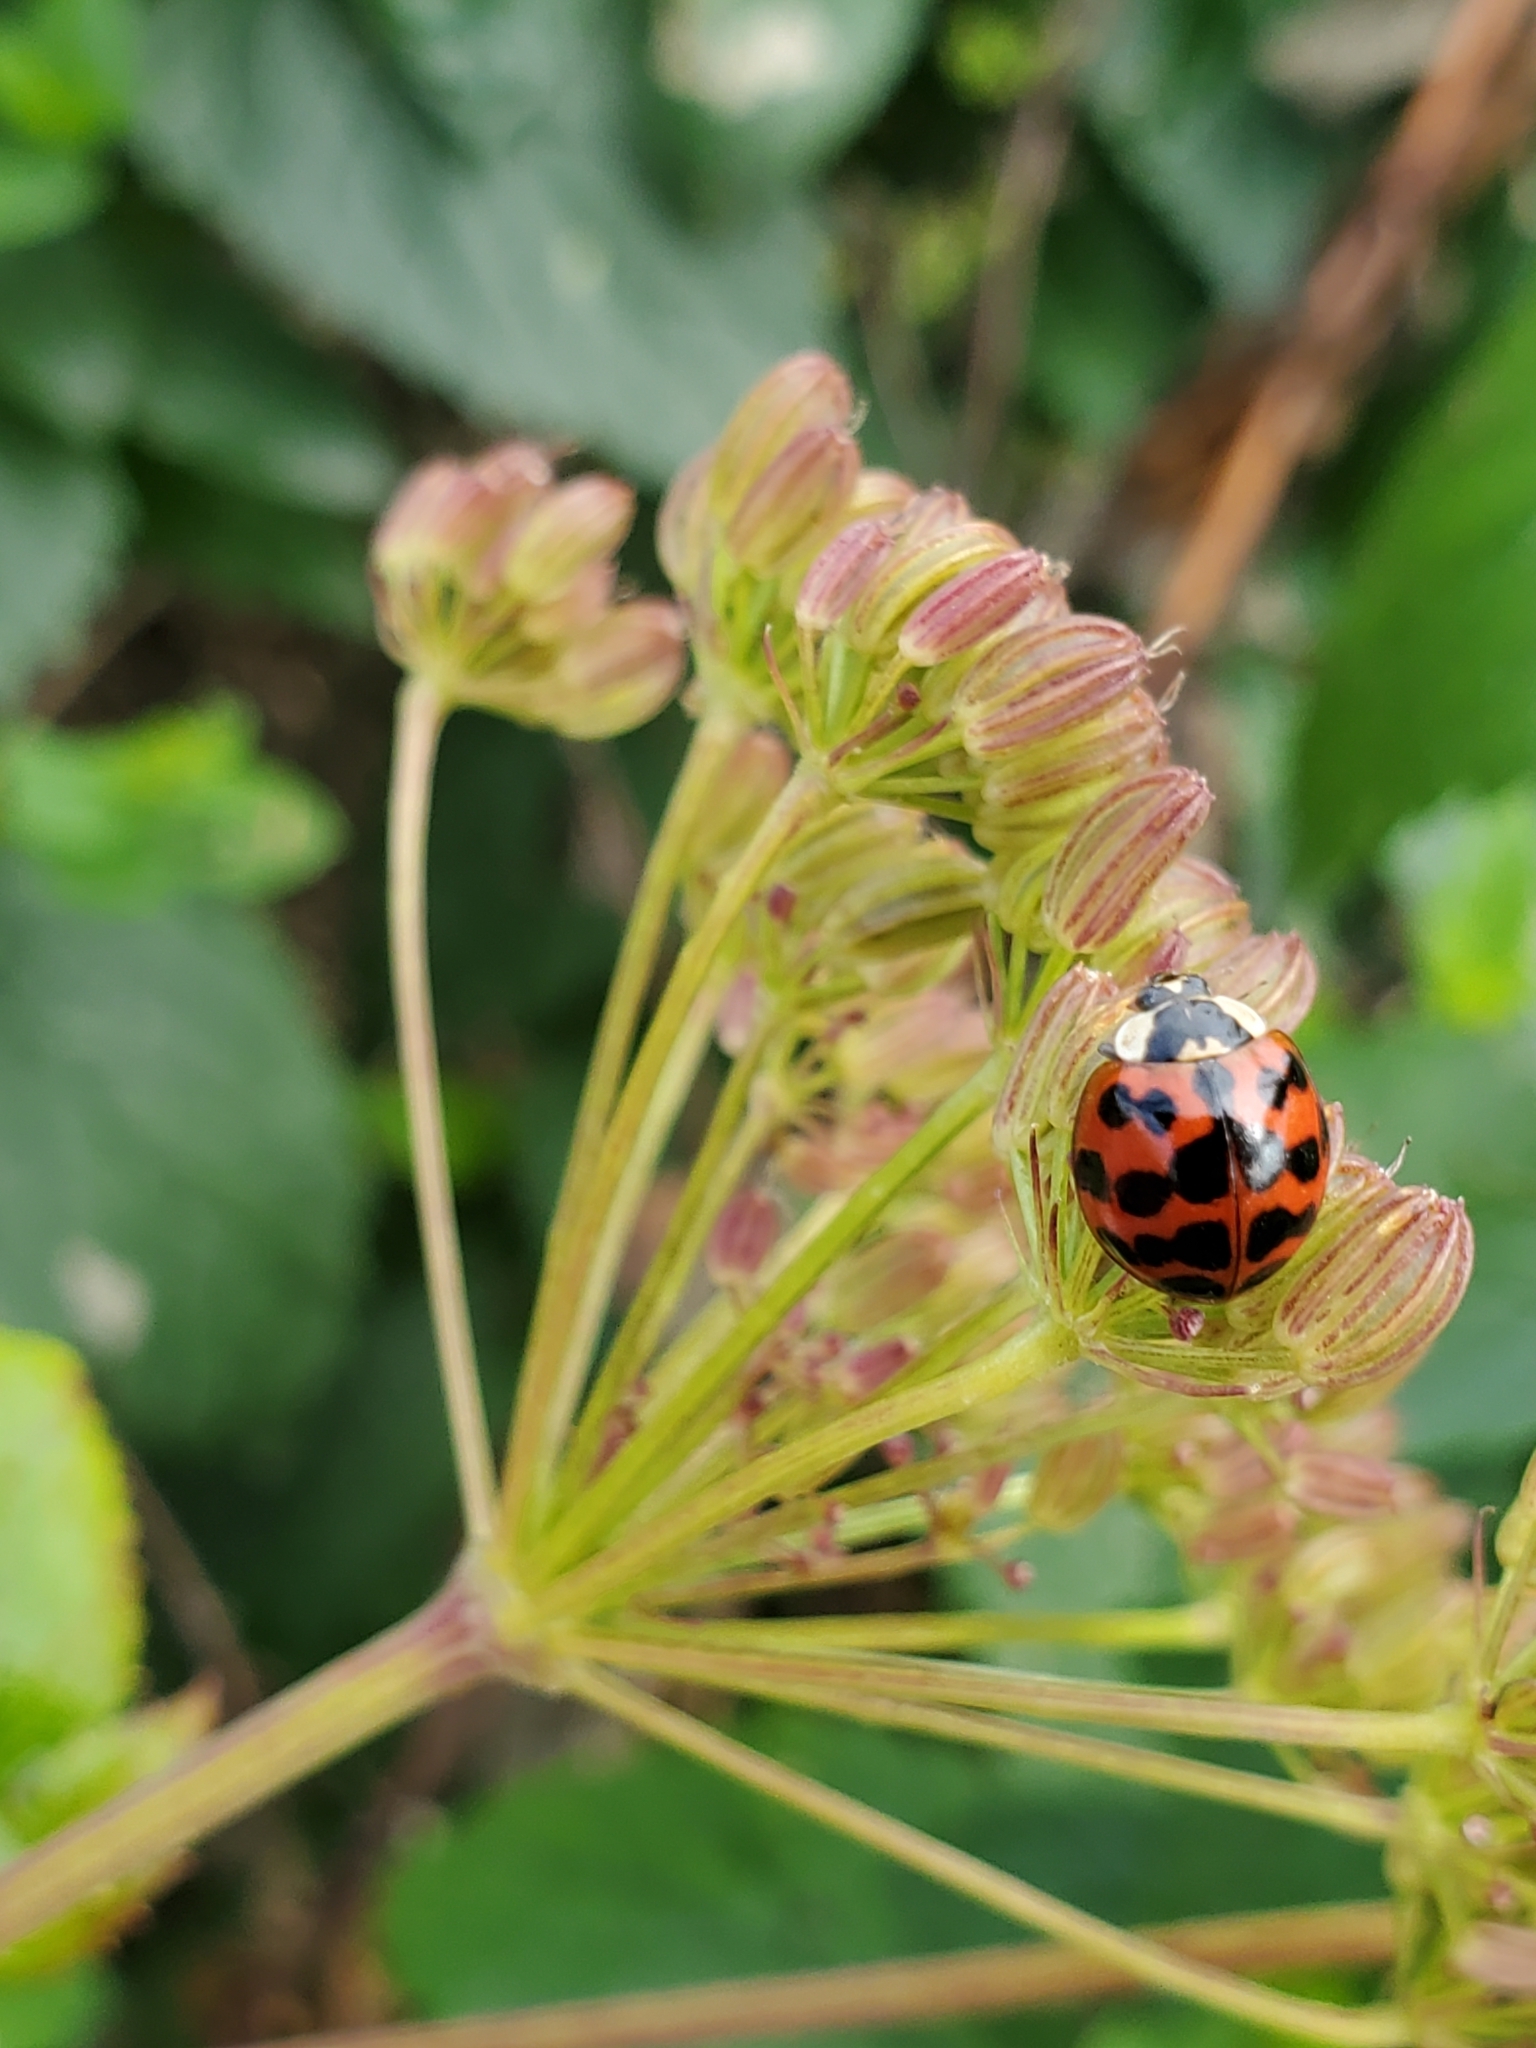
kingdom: Animalia
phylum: Arthropoda
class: Insecta
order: Coleoptera
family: Coccinellidae
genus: Harmonia
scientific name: Harmonia axyridis
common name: Harlequin ladybird
